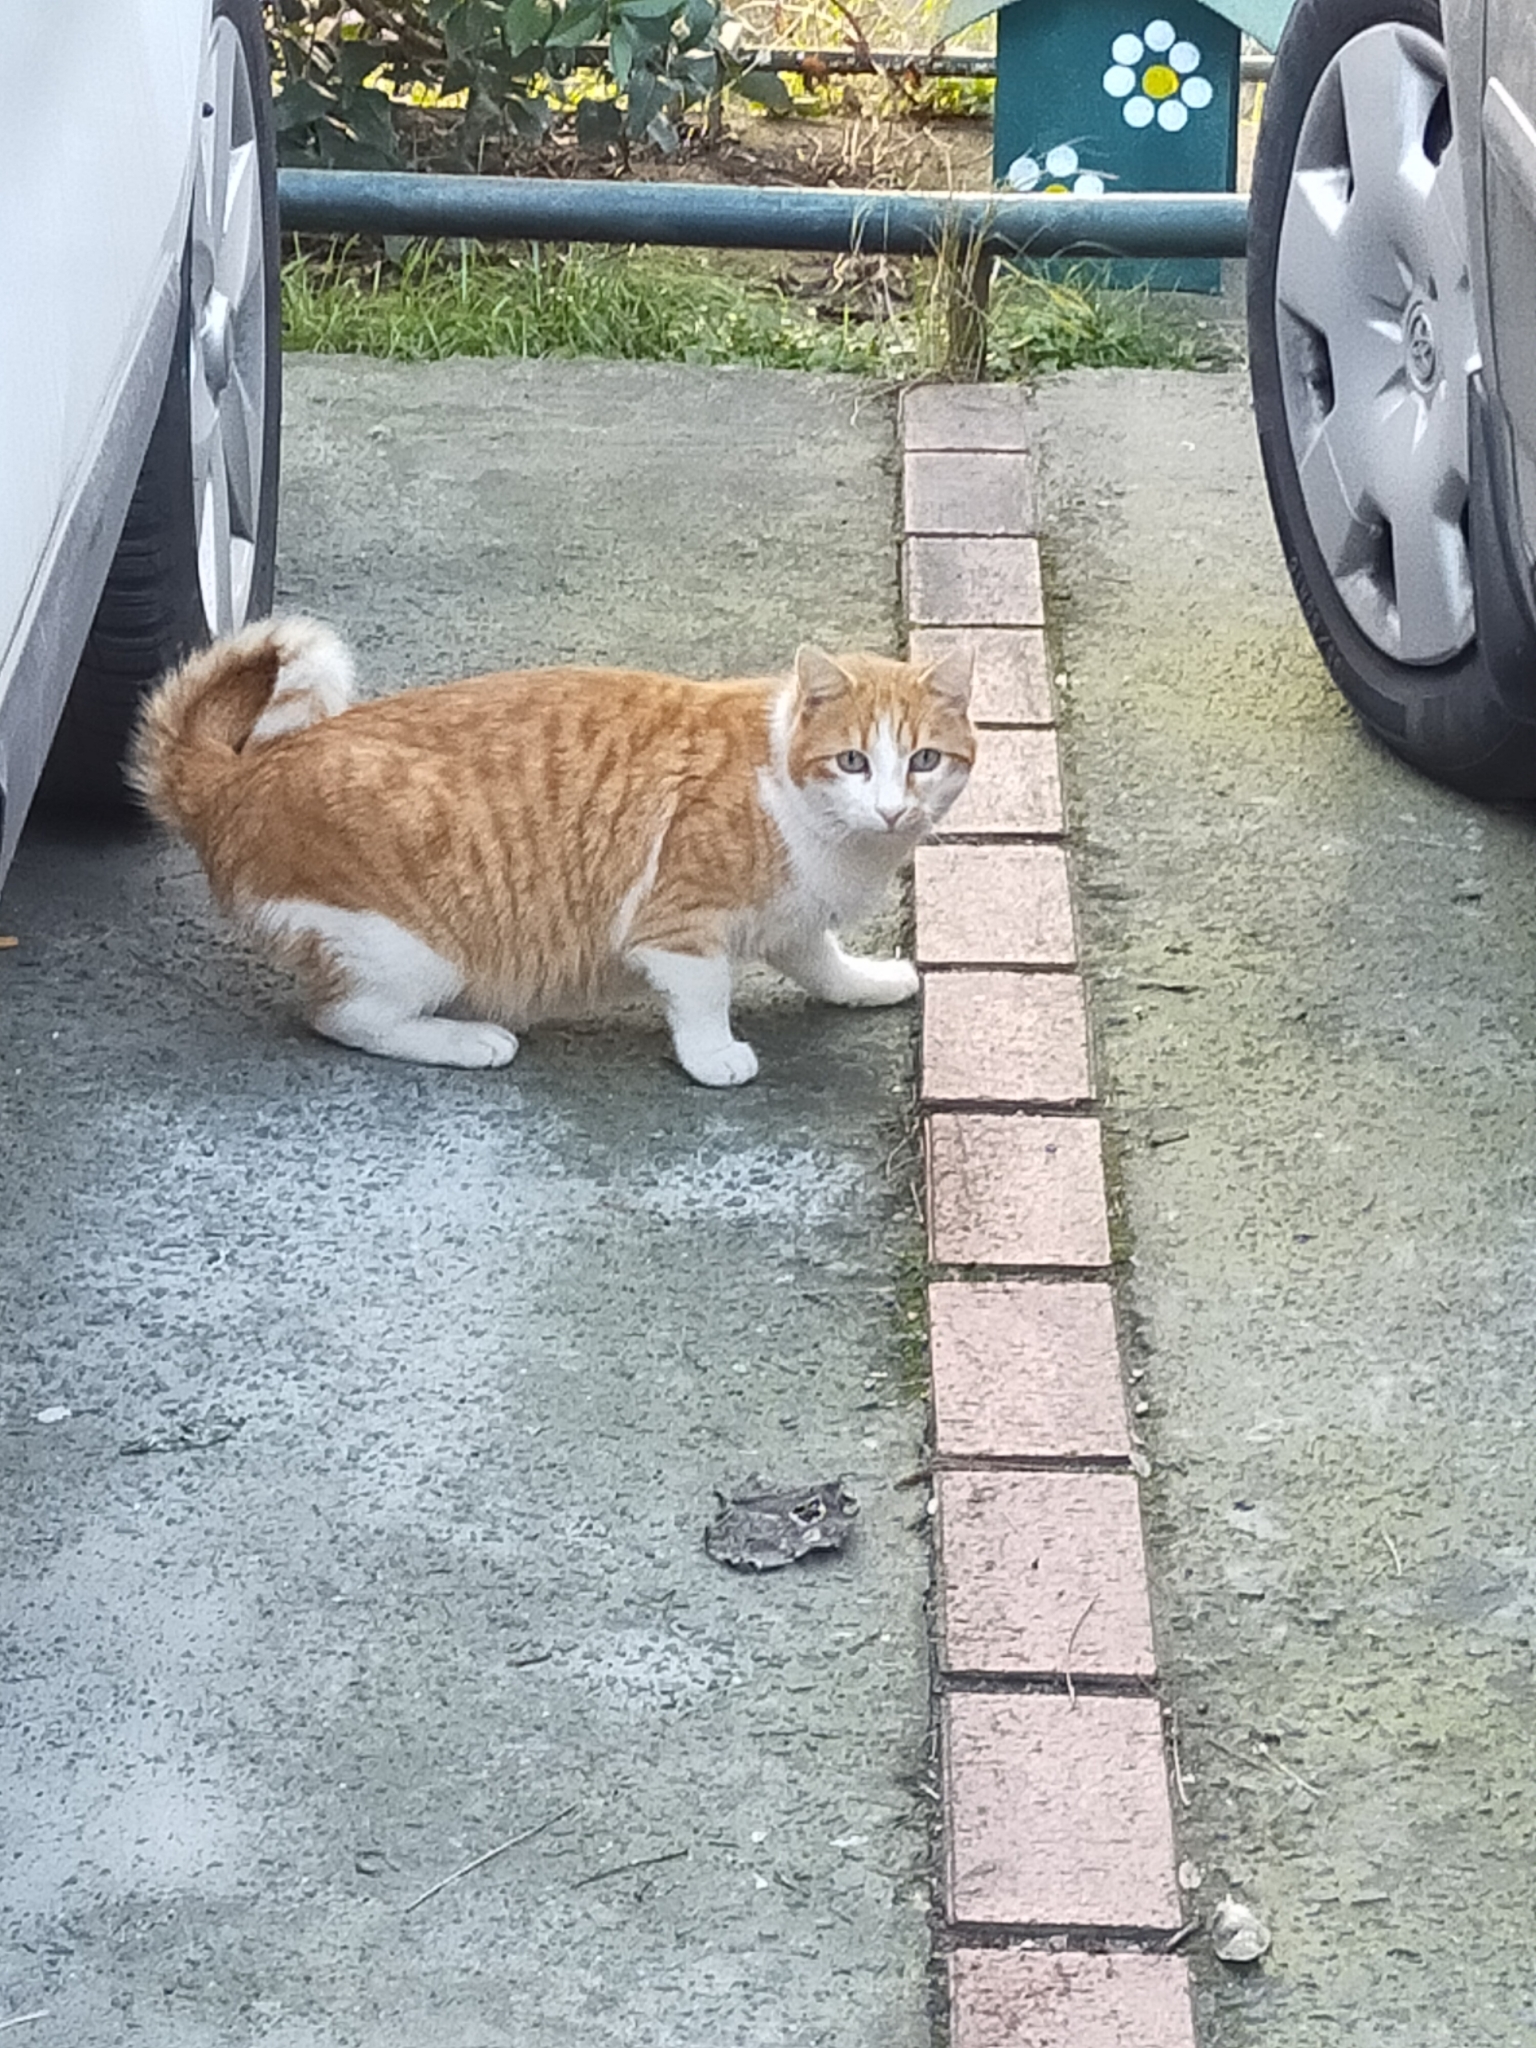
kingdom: Animalia
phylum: Chordata
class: Mammalia
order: Carnivora
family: Felidae
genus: Felis
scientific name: Felis catus
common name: Domestic cat
